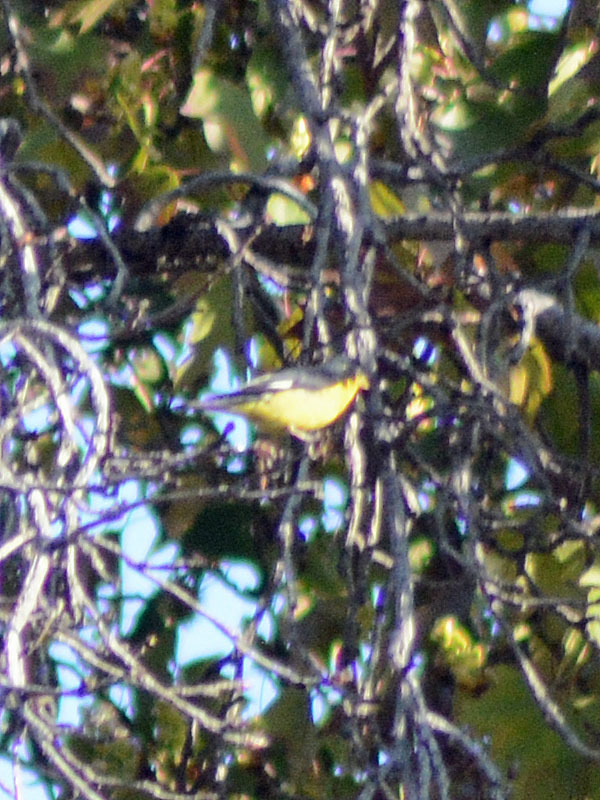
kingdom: Animalia
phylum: Chordata
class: Aves
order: Passeriformes
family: Fringillidae
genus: Spinus
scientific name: Spinus psaltria
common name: Lesser goldfinch
